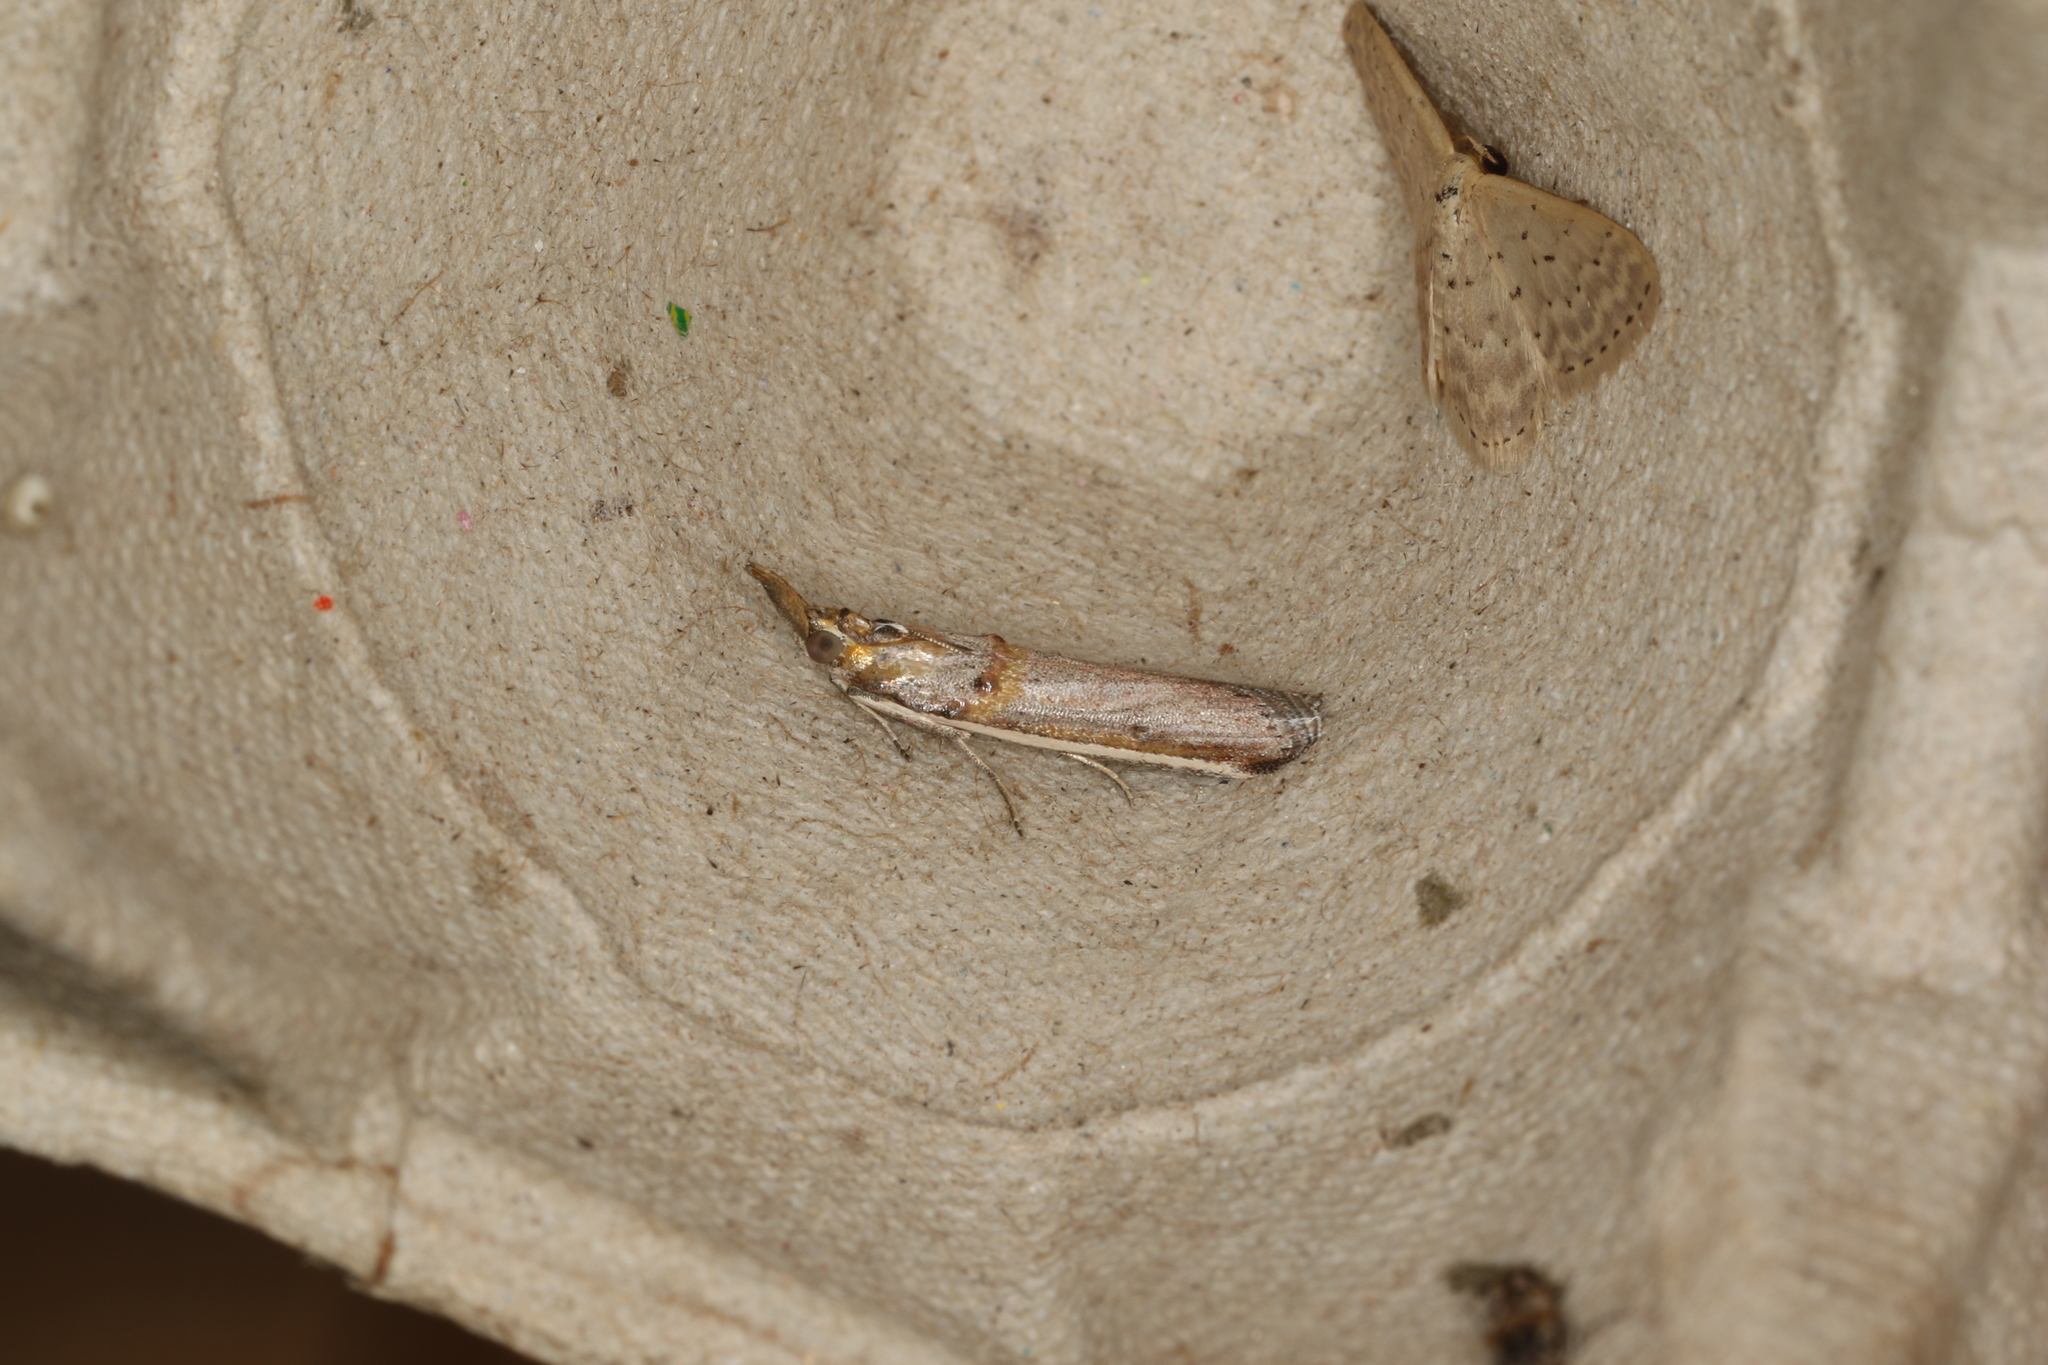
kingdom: Animalia
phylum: Arthropoda
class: Insecta
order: Lepidoptera
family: Pyralidae
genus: Etiella
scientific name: Etiella behrii
